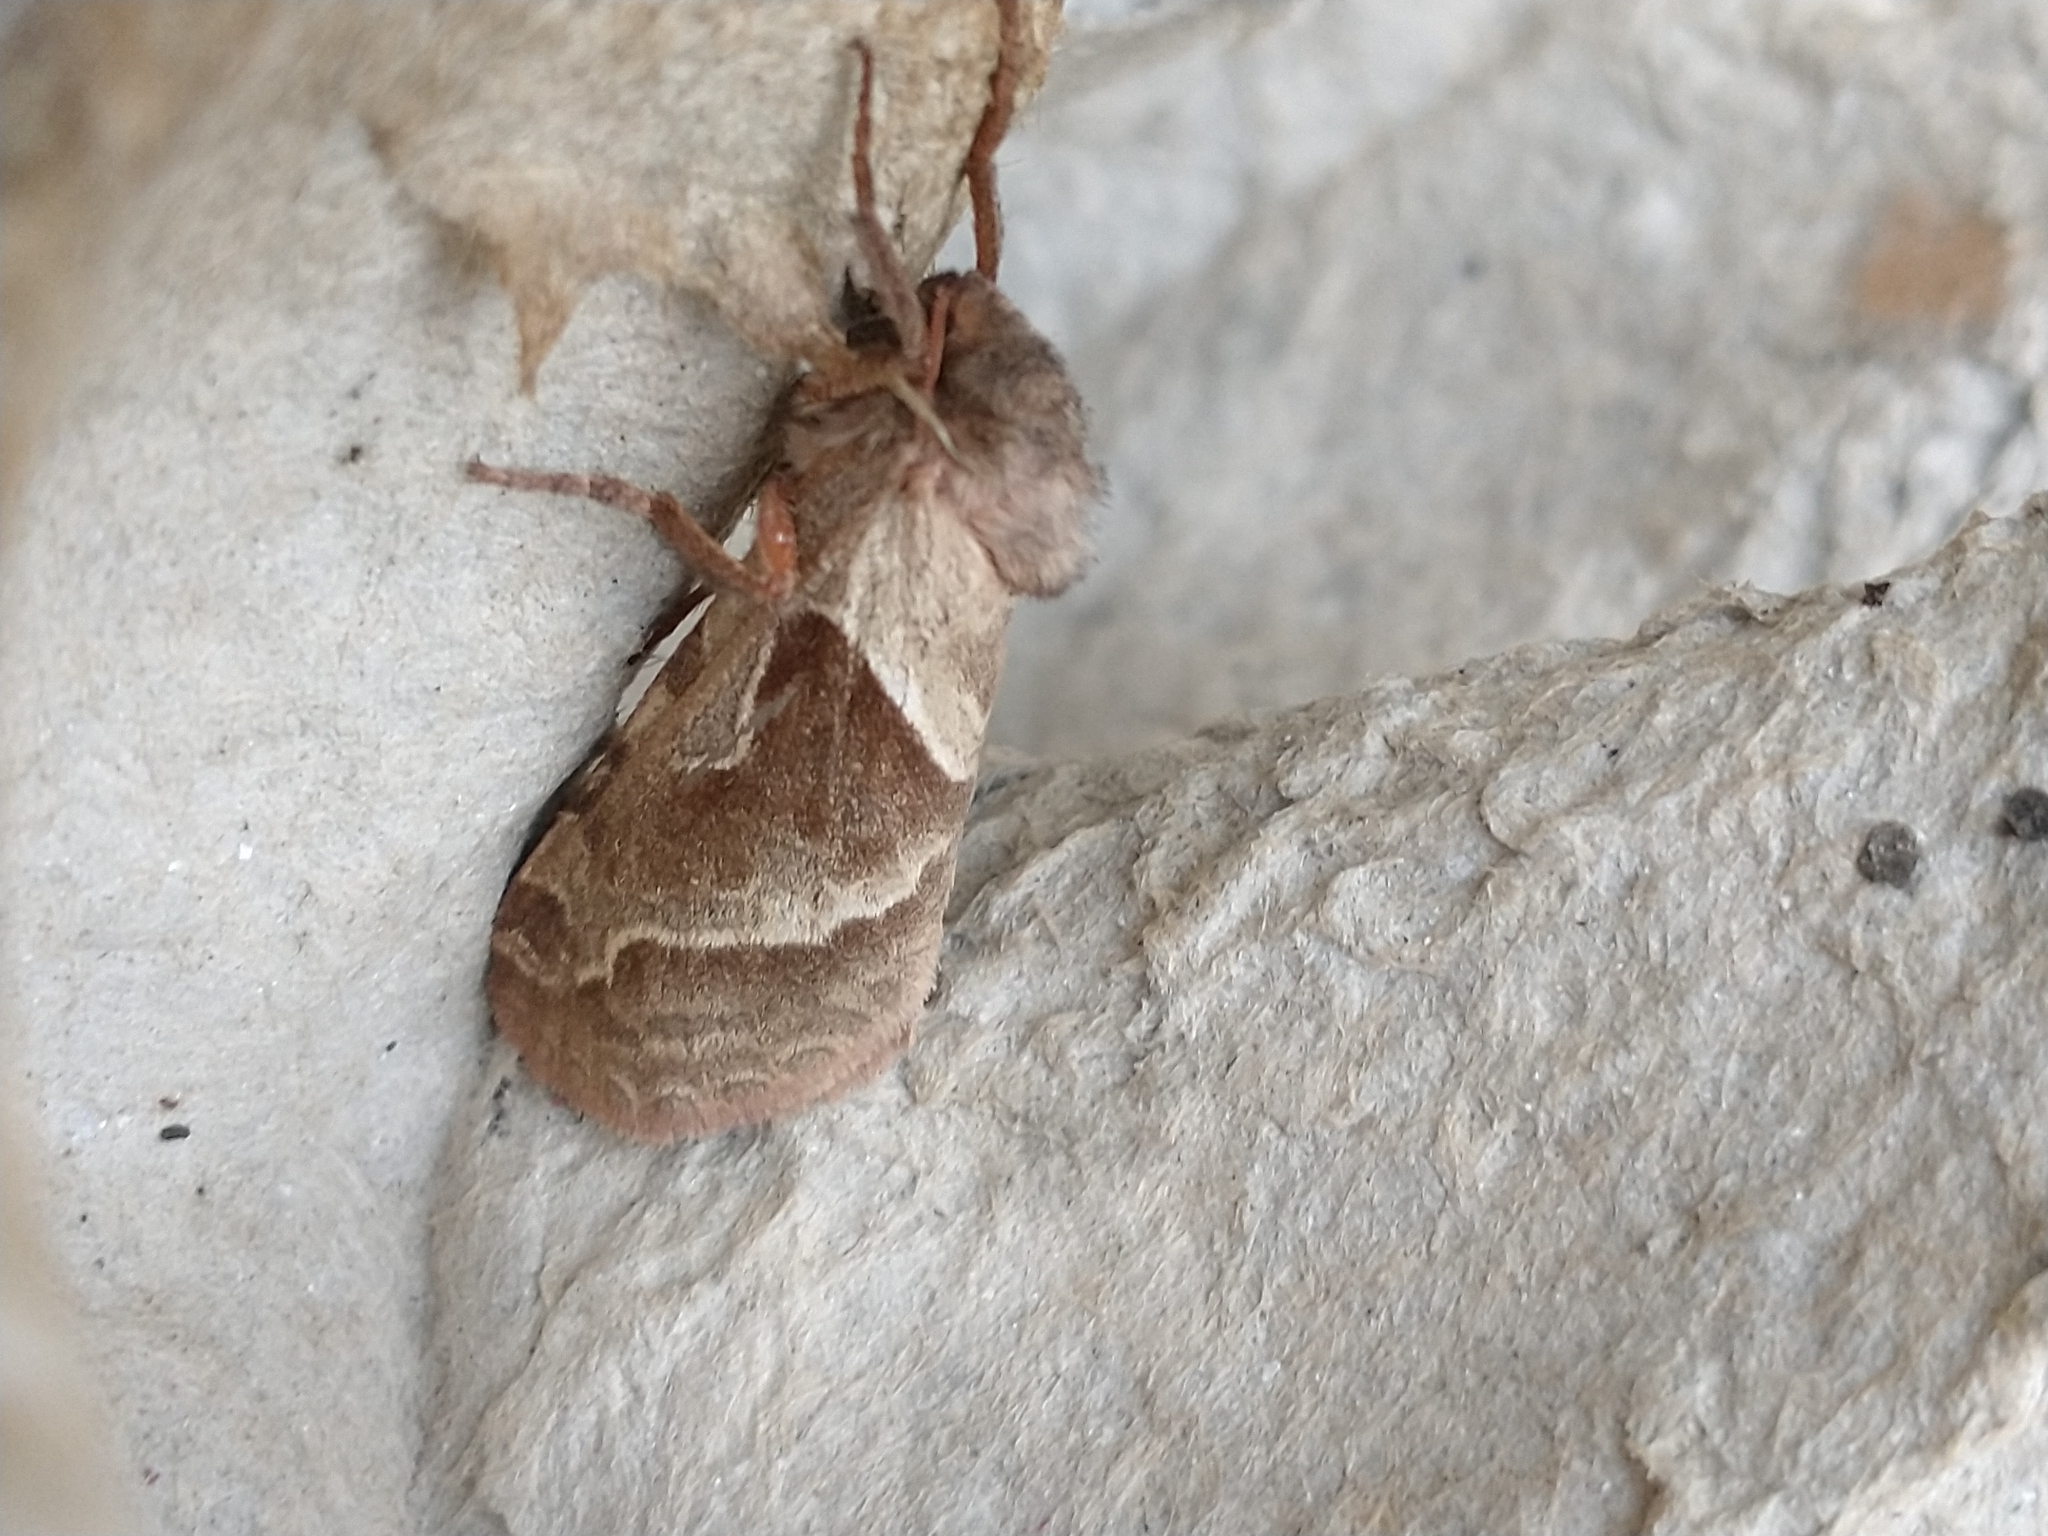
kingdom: Animalia
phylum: Arthropoda
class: Insecta
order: Lepidoptera
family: Hepialidae
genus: Triodia
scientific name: Triodia sylvina
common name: Orange swift
